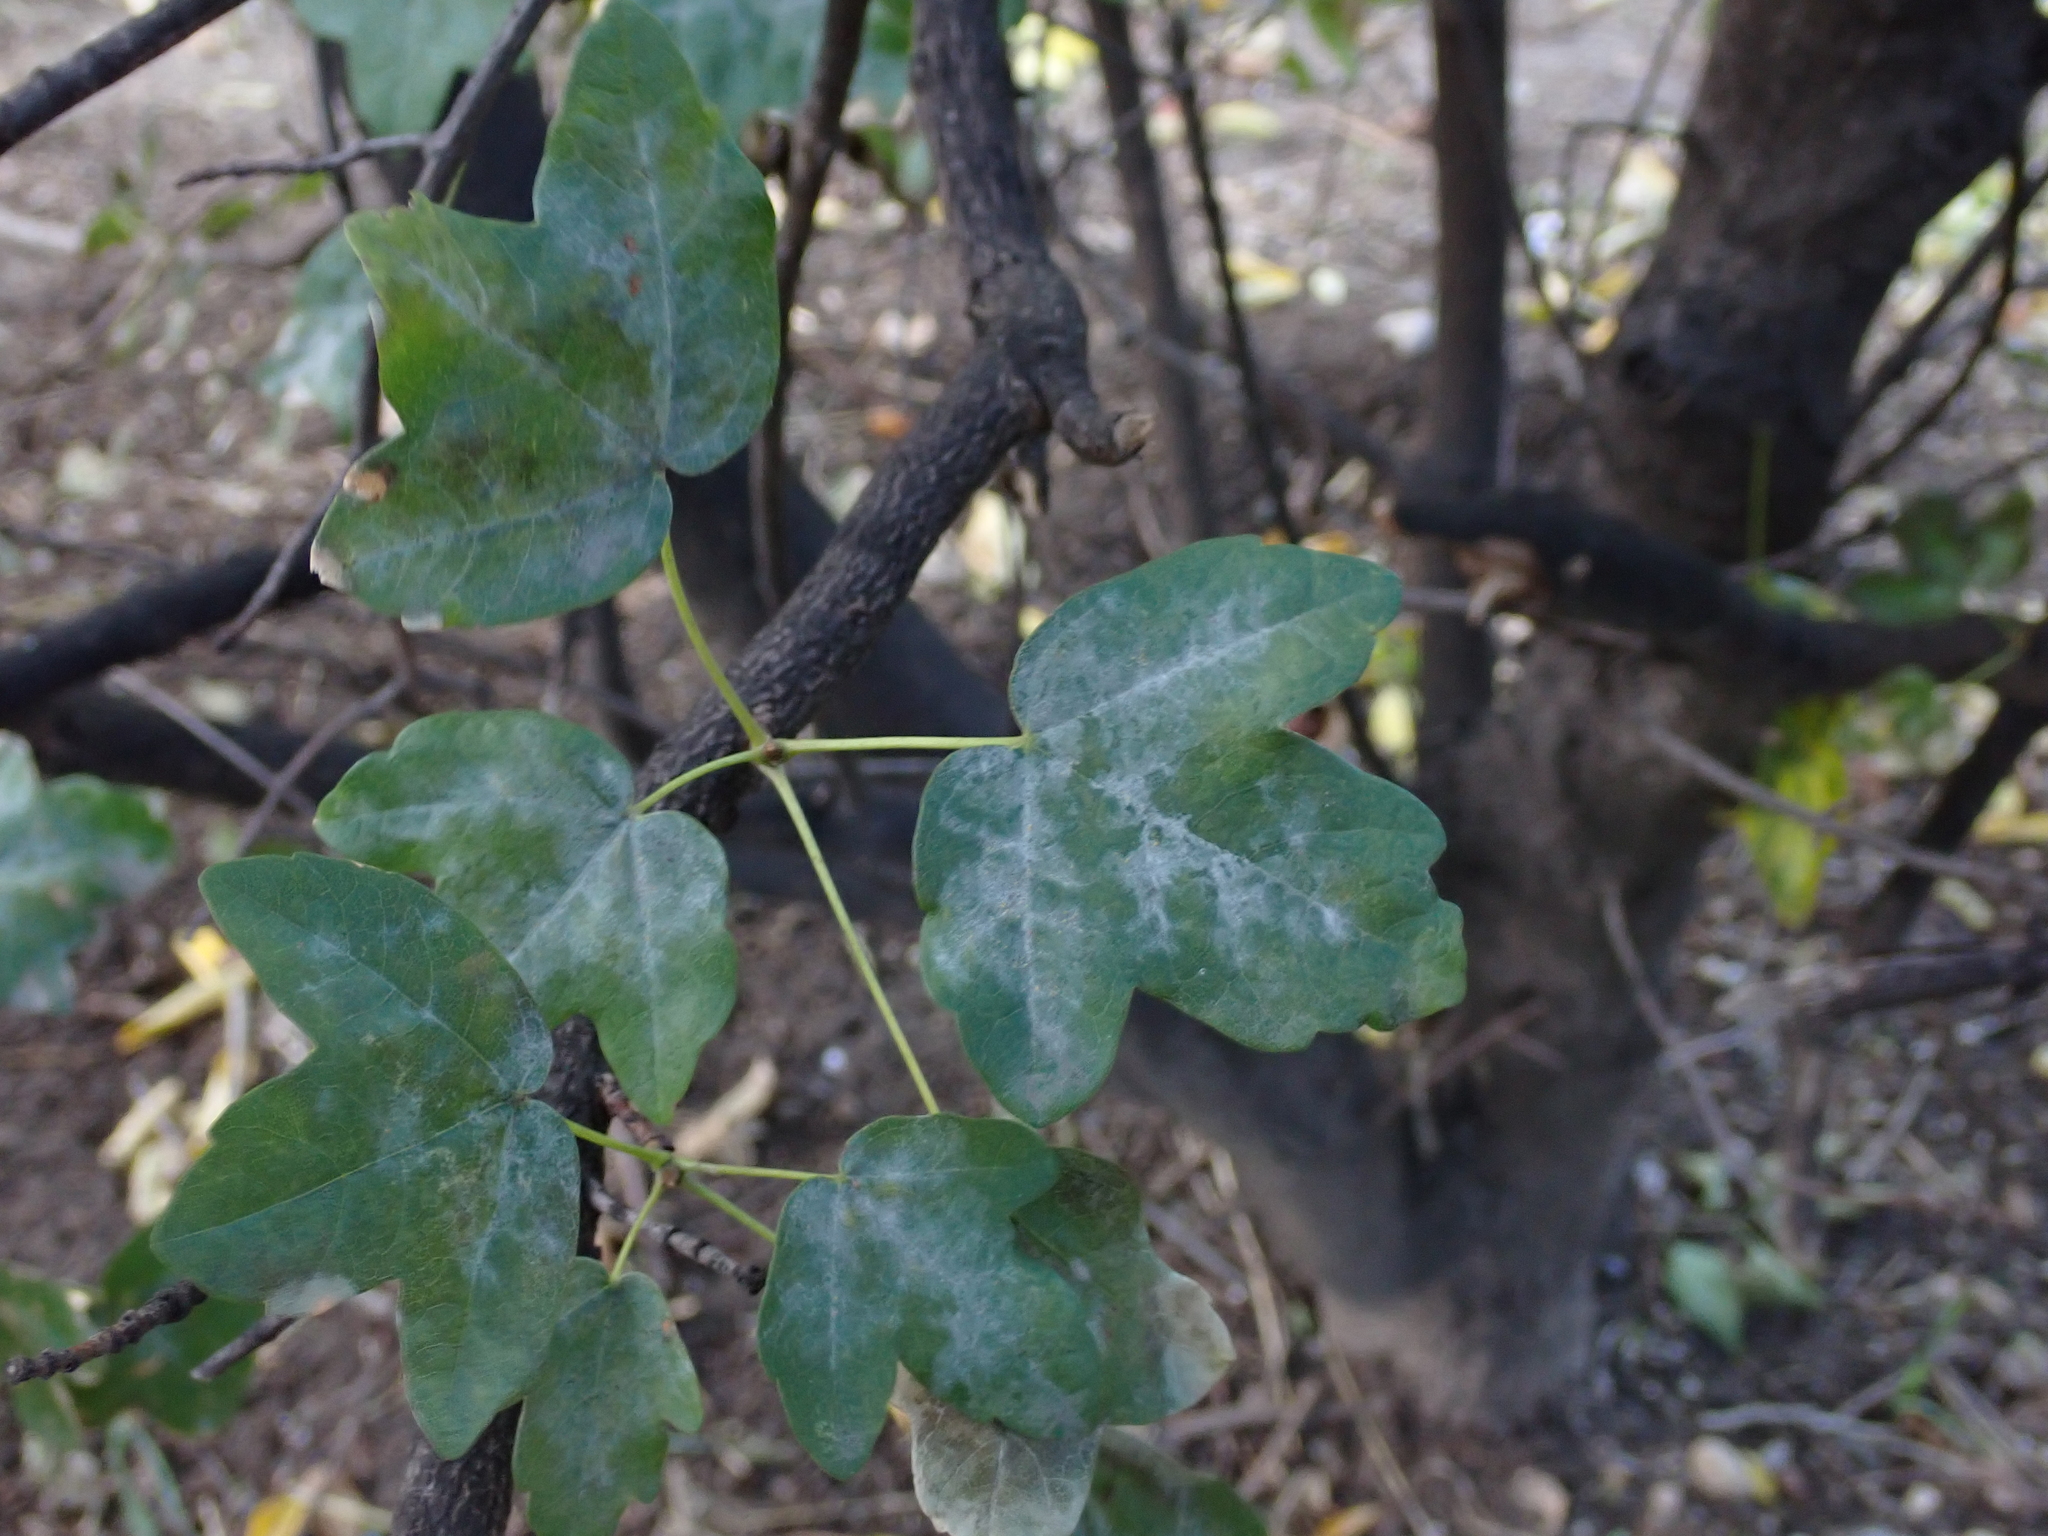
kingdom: Fungi
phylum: Ascomycota
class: Leotiomycetes
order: Helotiales
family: Erysiphaceae
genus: Sawadaea
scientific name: Sawadaea bicornis
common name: Maple mildew
